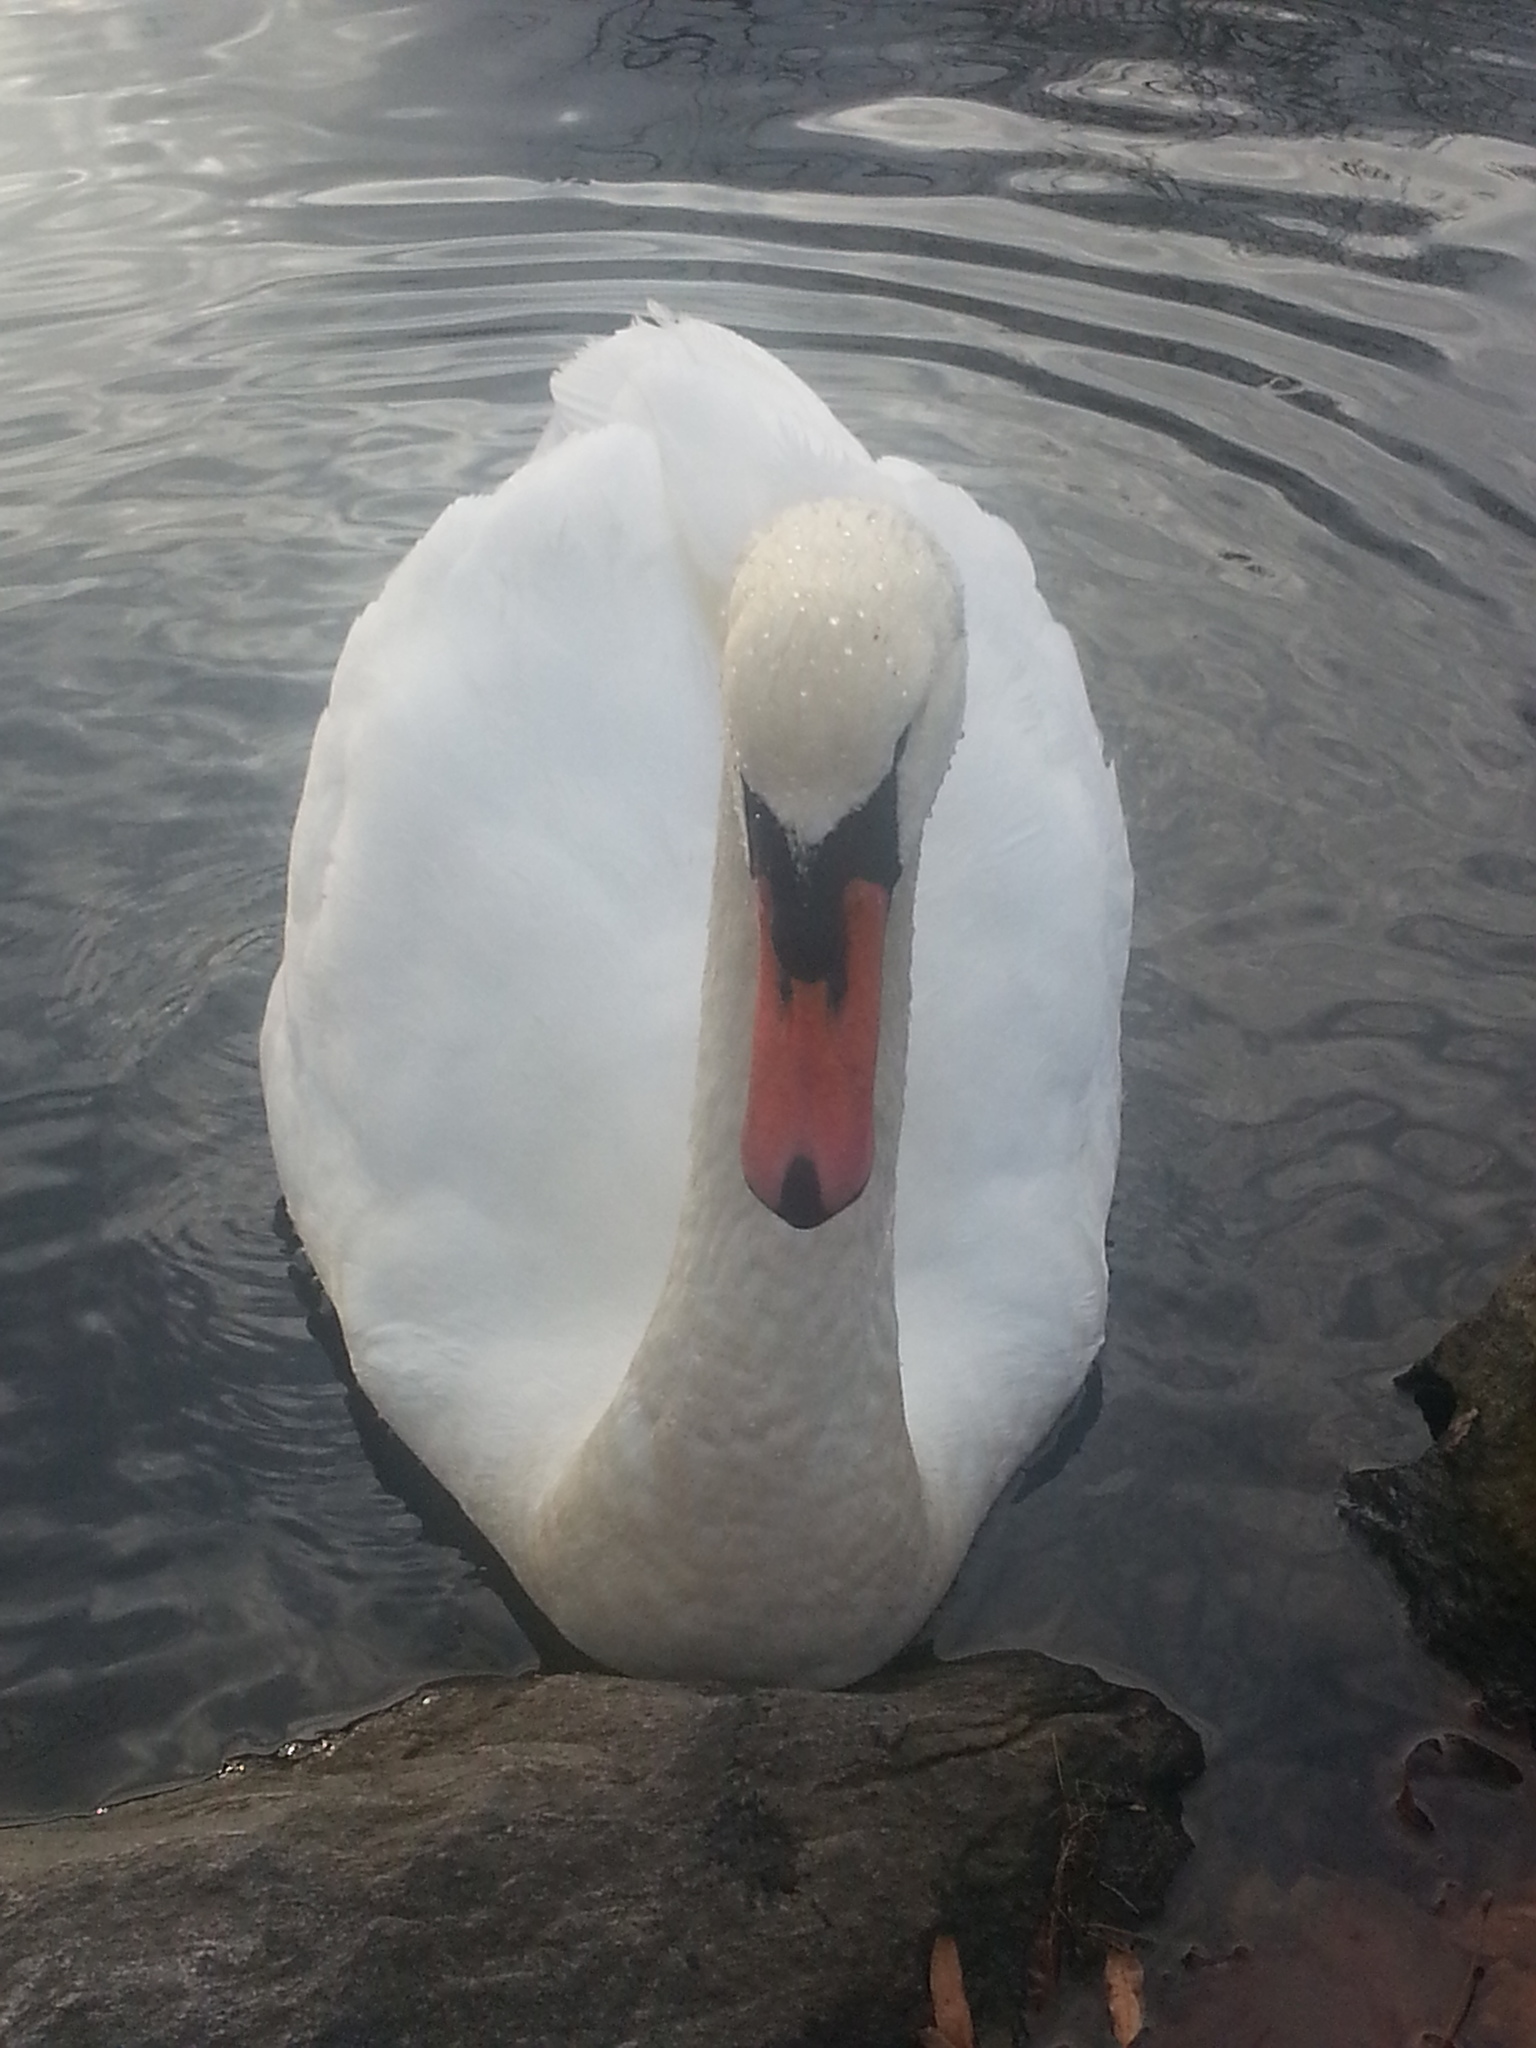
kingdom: Animalia
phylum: Chordata
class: Aves
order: Anseriformes
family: Anatidae
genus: Cygnus
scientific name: Cygnus olor
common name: Mute swan
